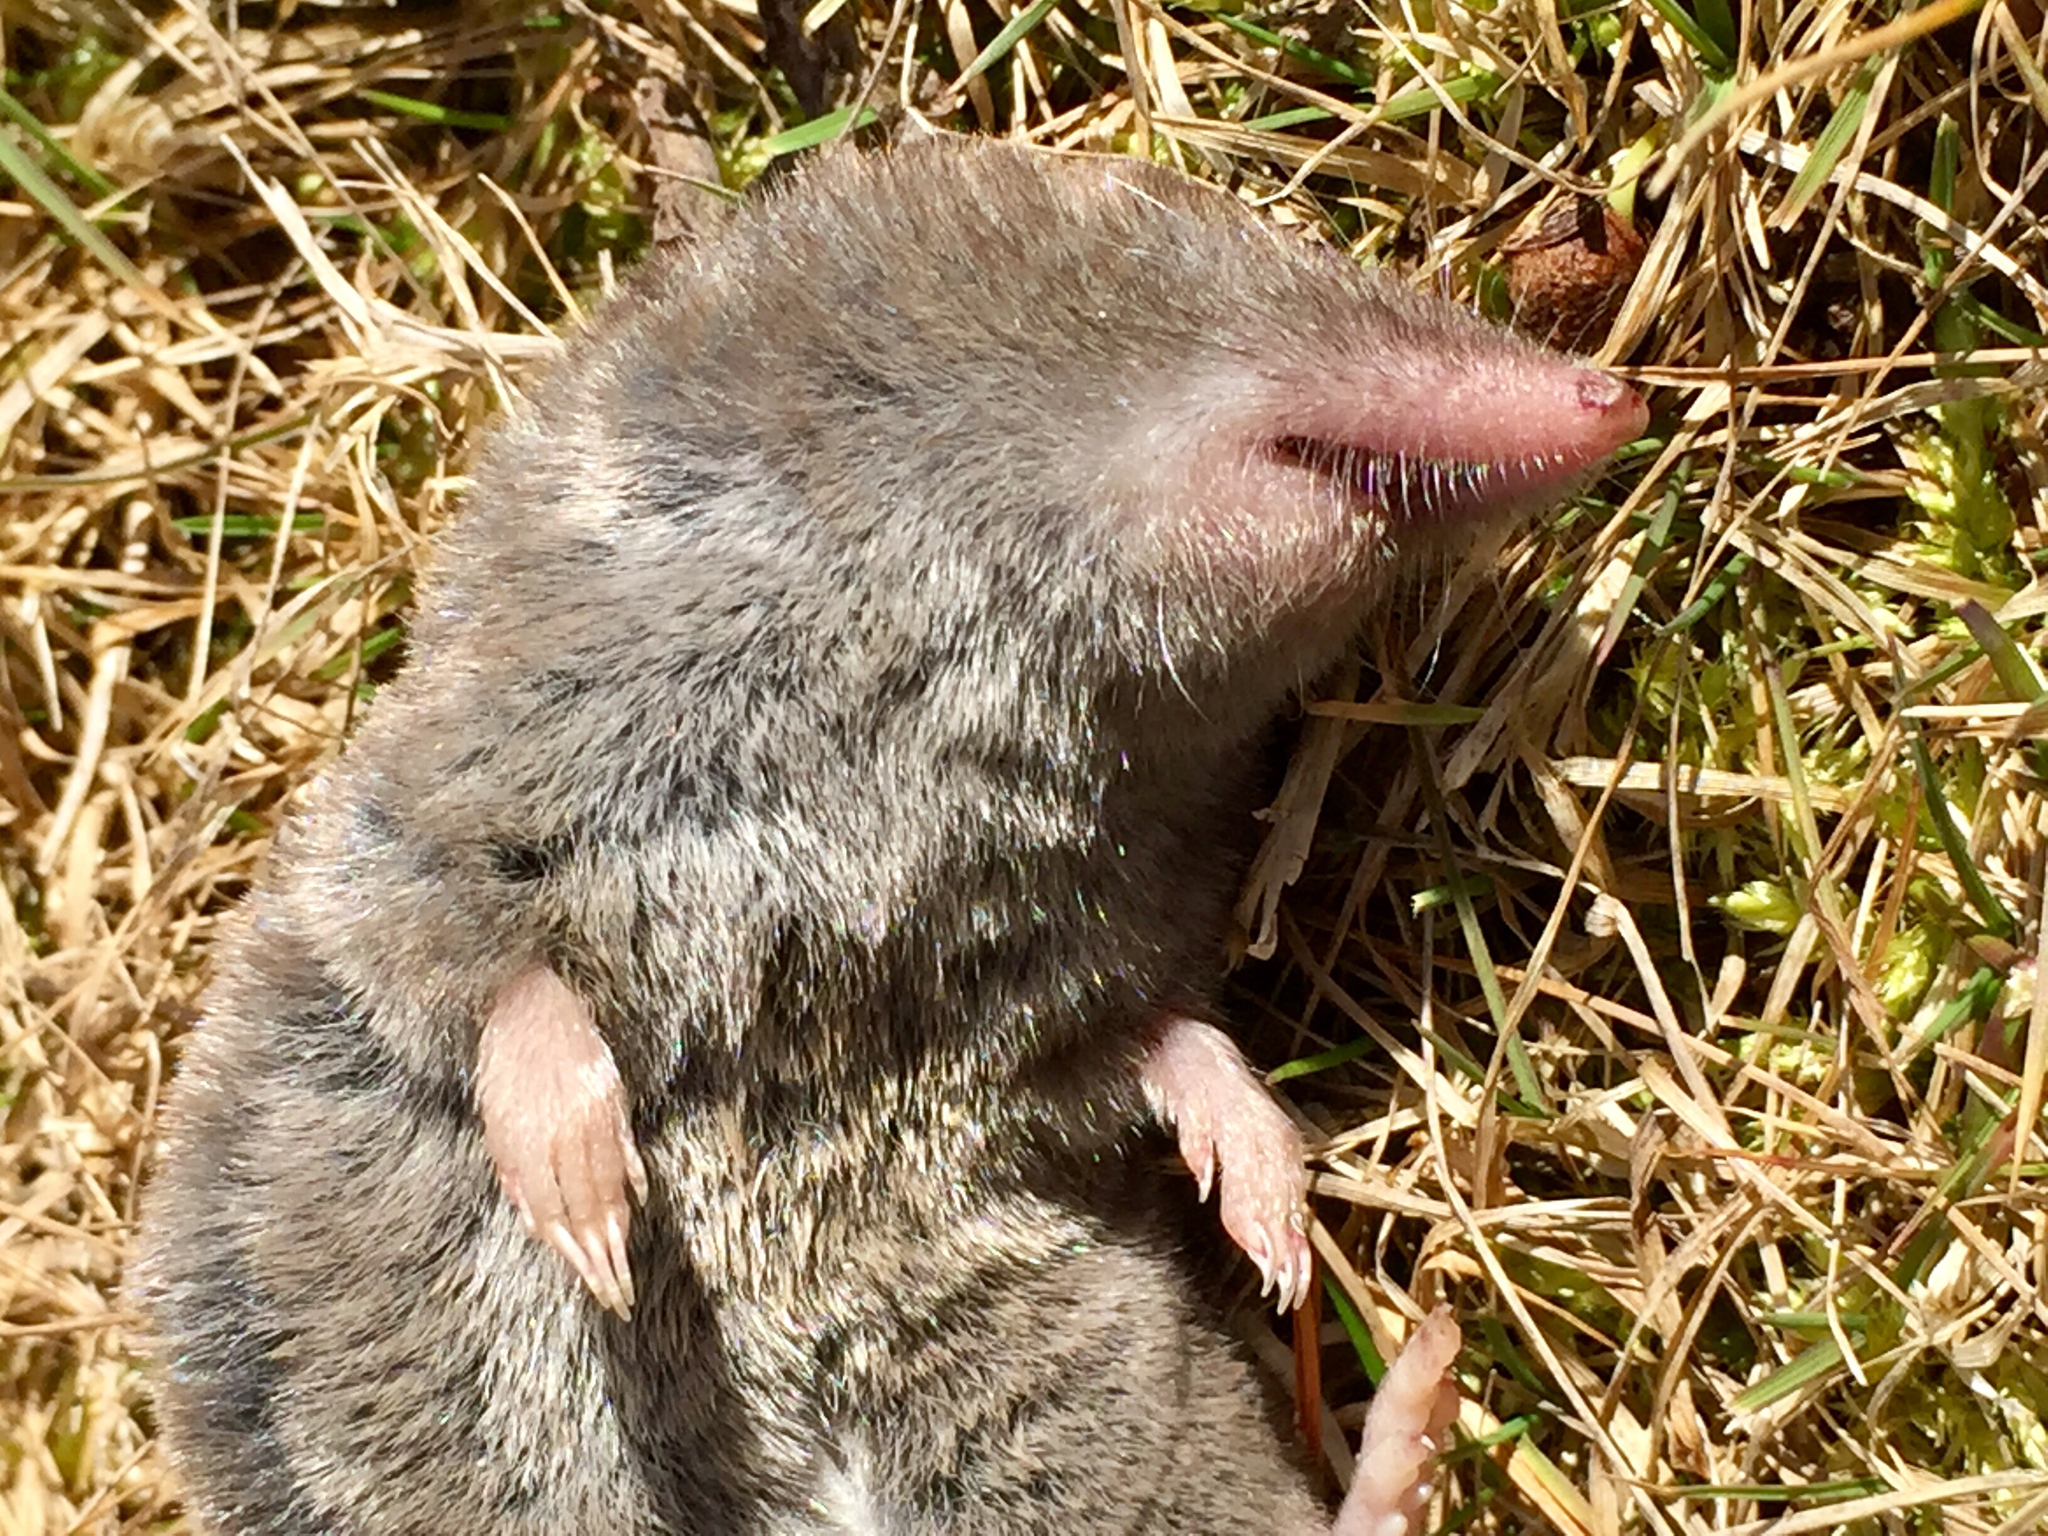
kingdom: Animalia
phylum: Chordata
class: Mammalia
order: Soricomorpha
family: Soricidae
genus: Blarina
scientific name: Blarina brevicauda
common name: Northern short-tailed shrew
